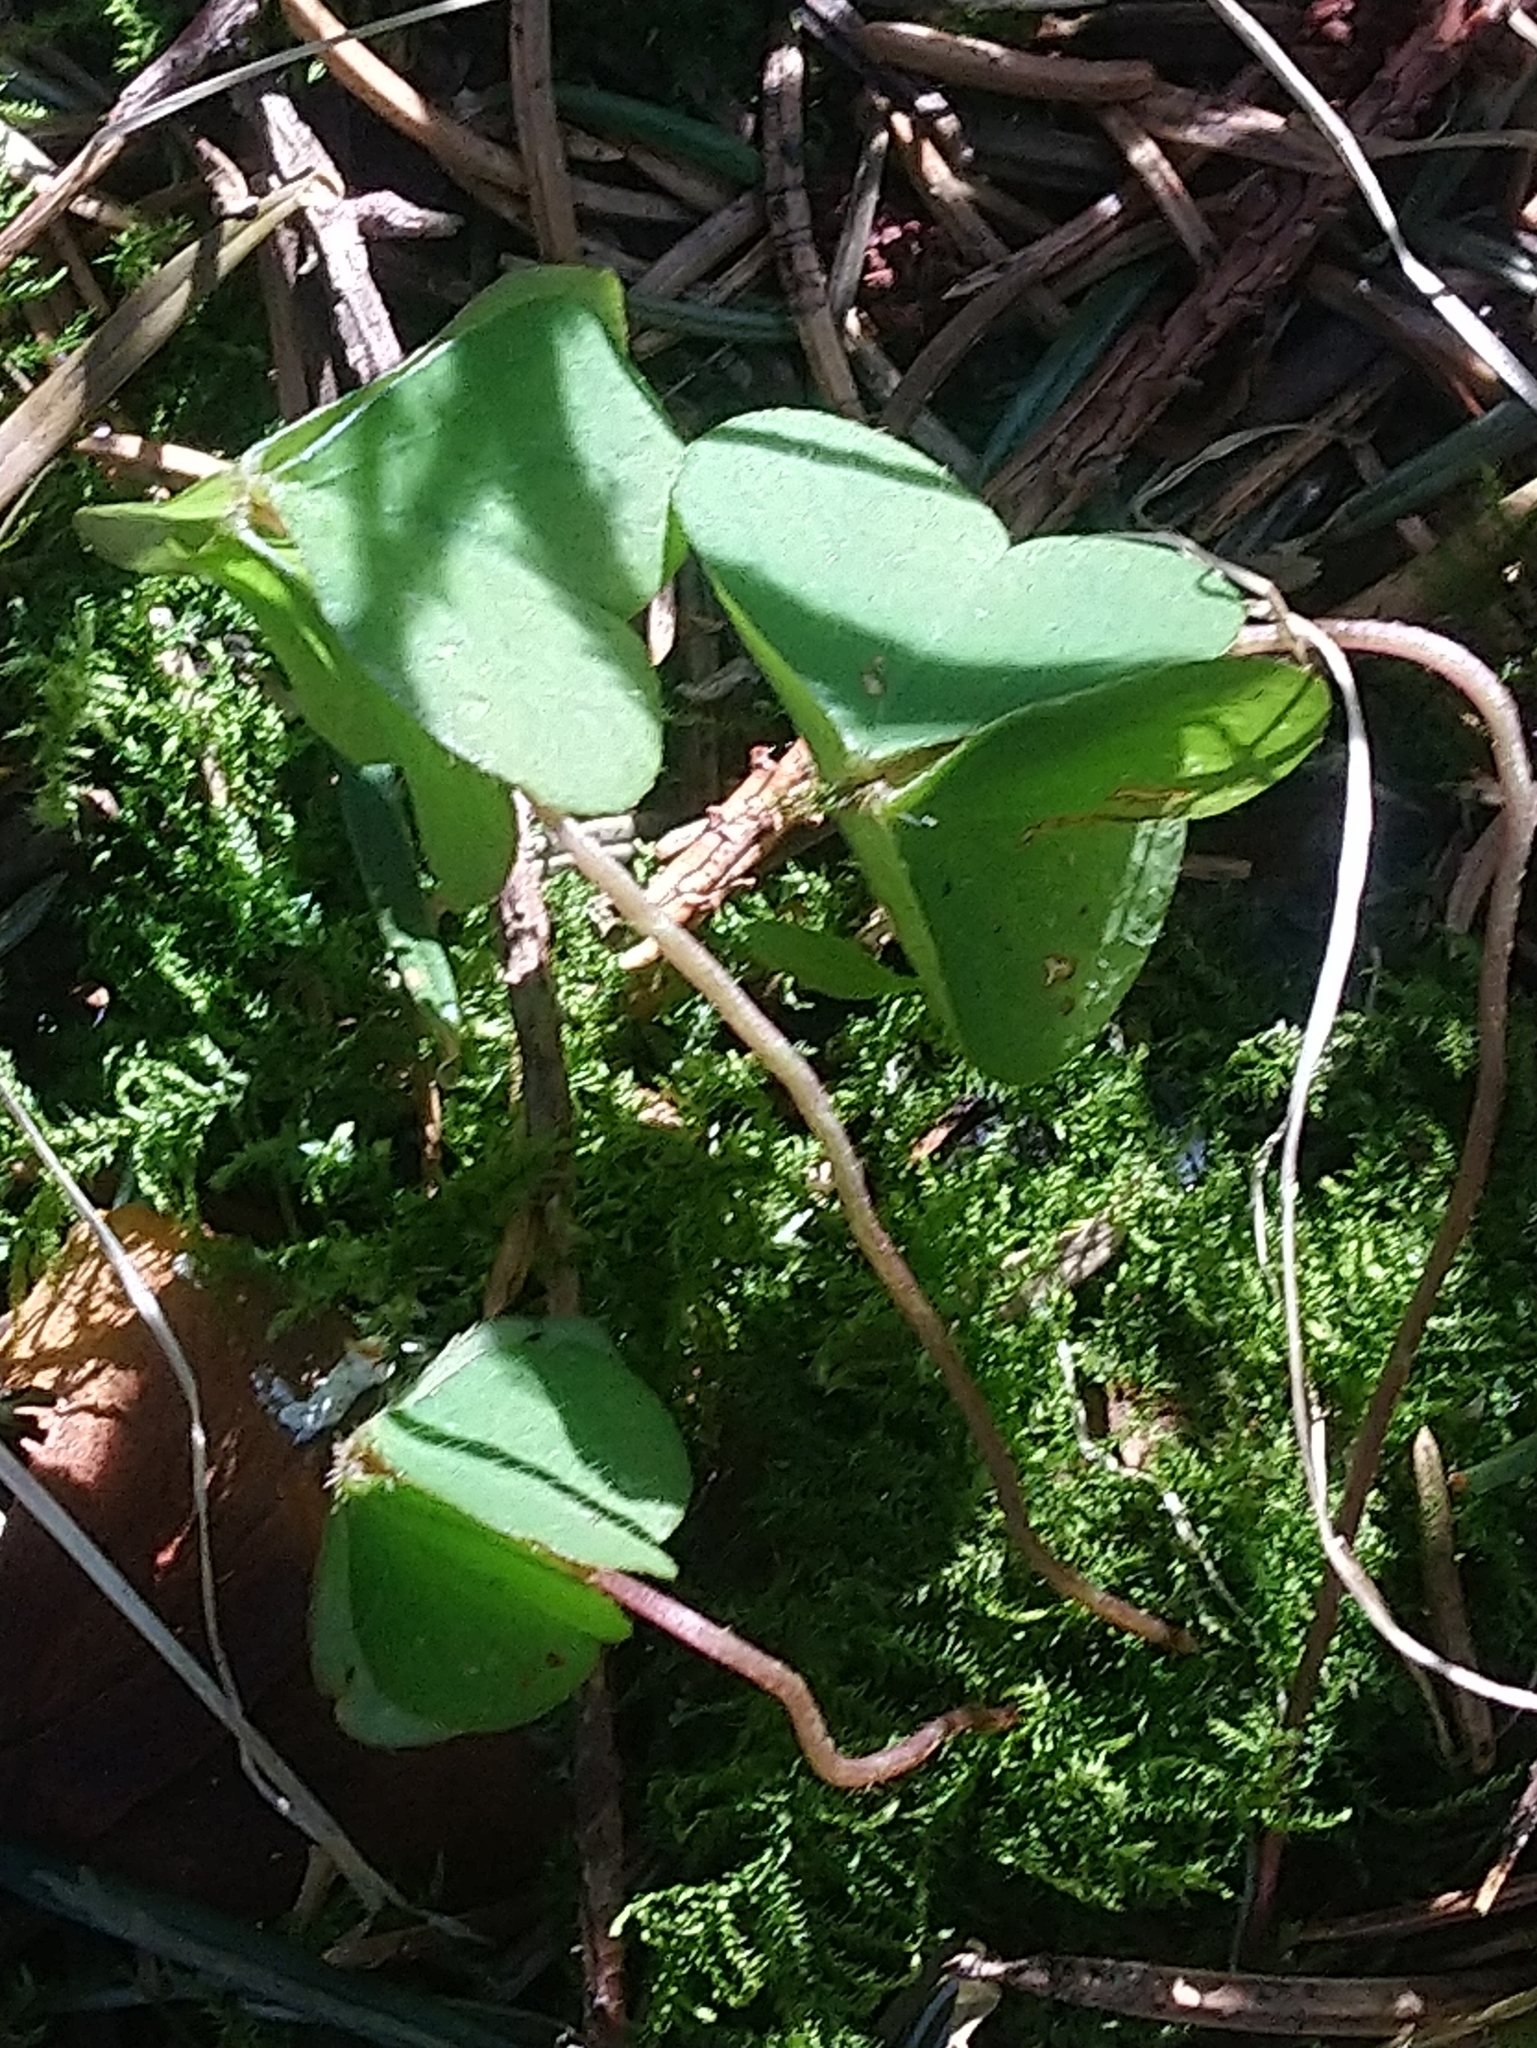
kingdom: Plantae
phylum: Tracheophyta
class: Magnoliopsida
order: Oxalidales
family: Oxalidaceae
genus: Oxalis
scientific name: Oxalis acetosella
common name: Wood-sorrel
